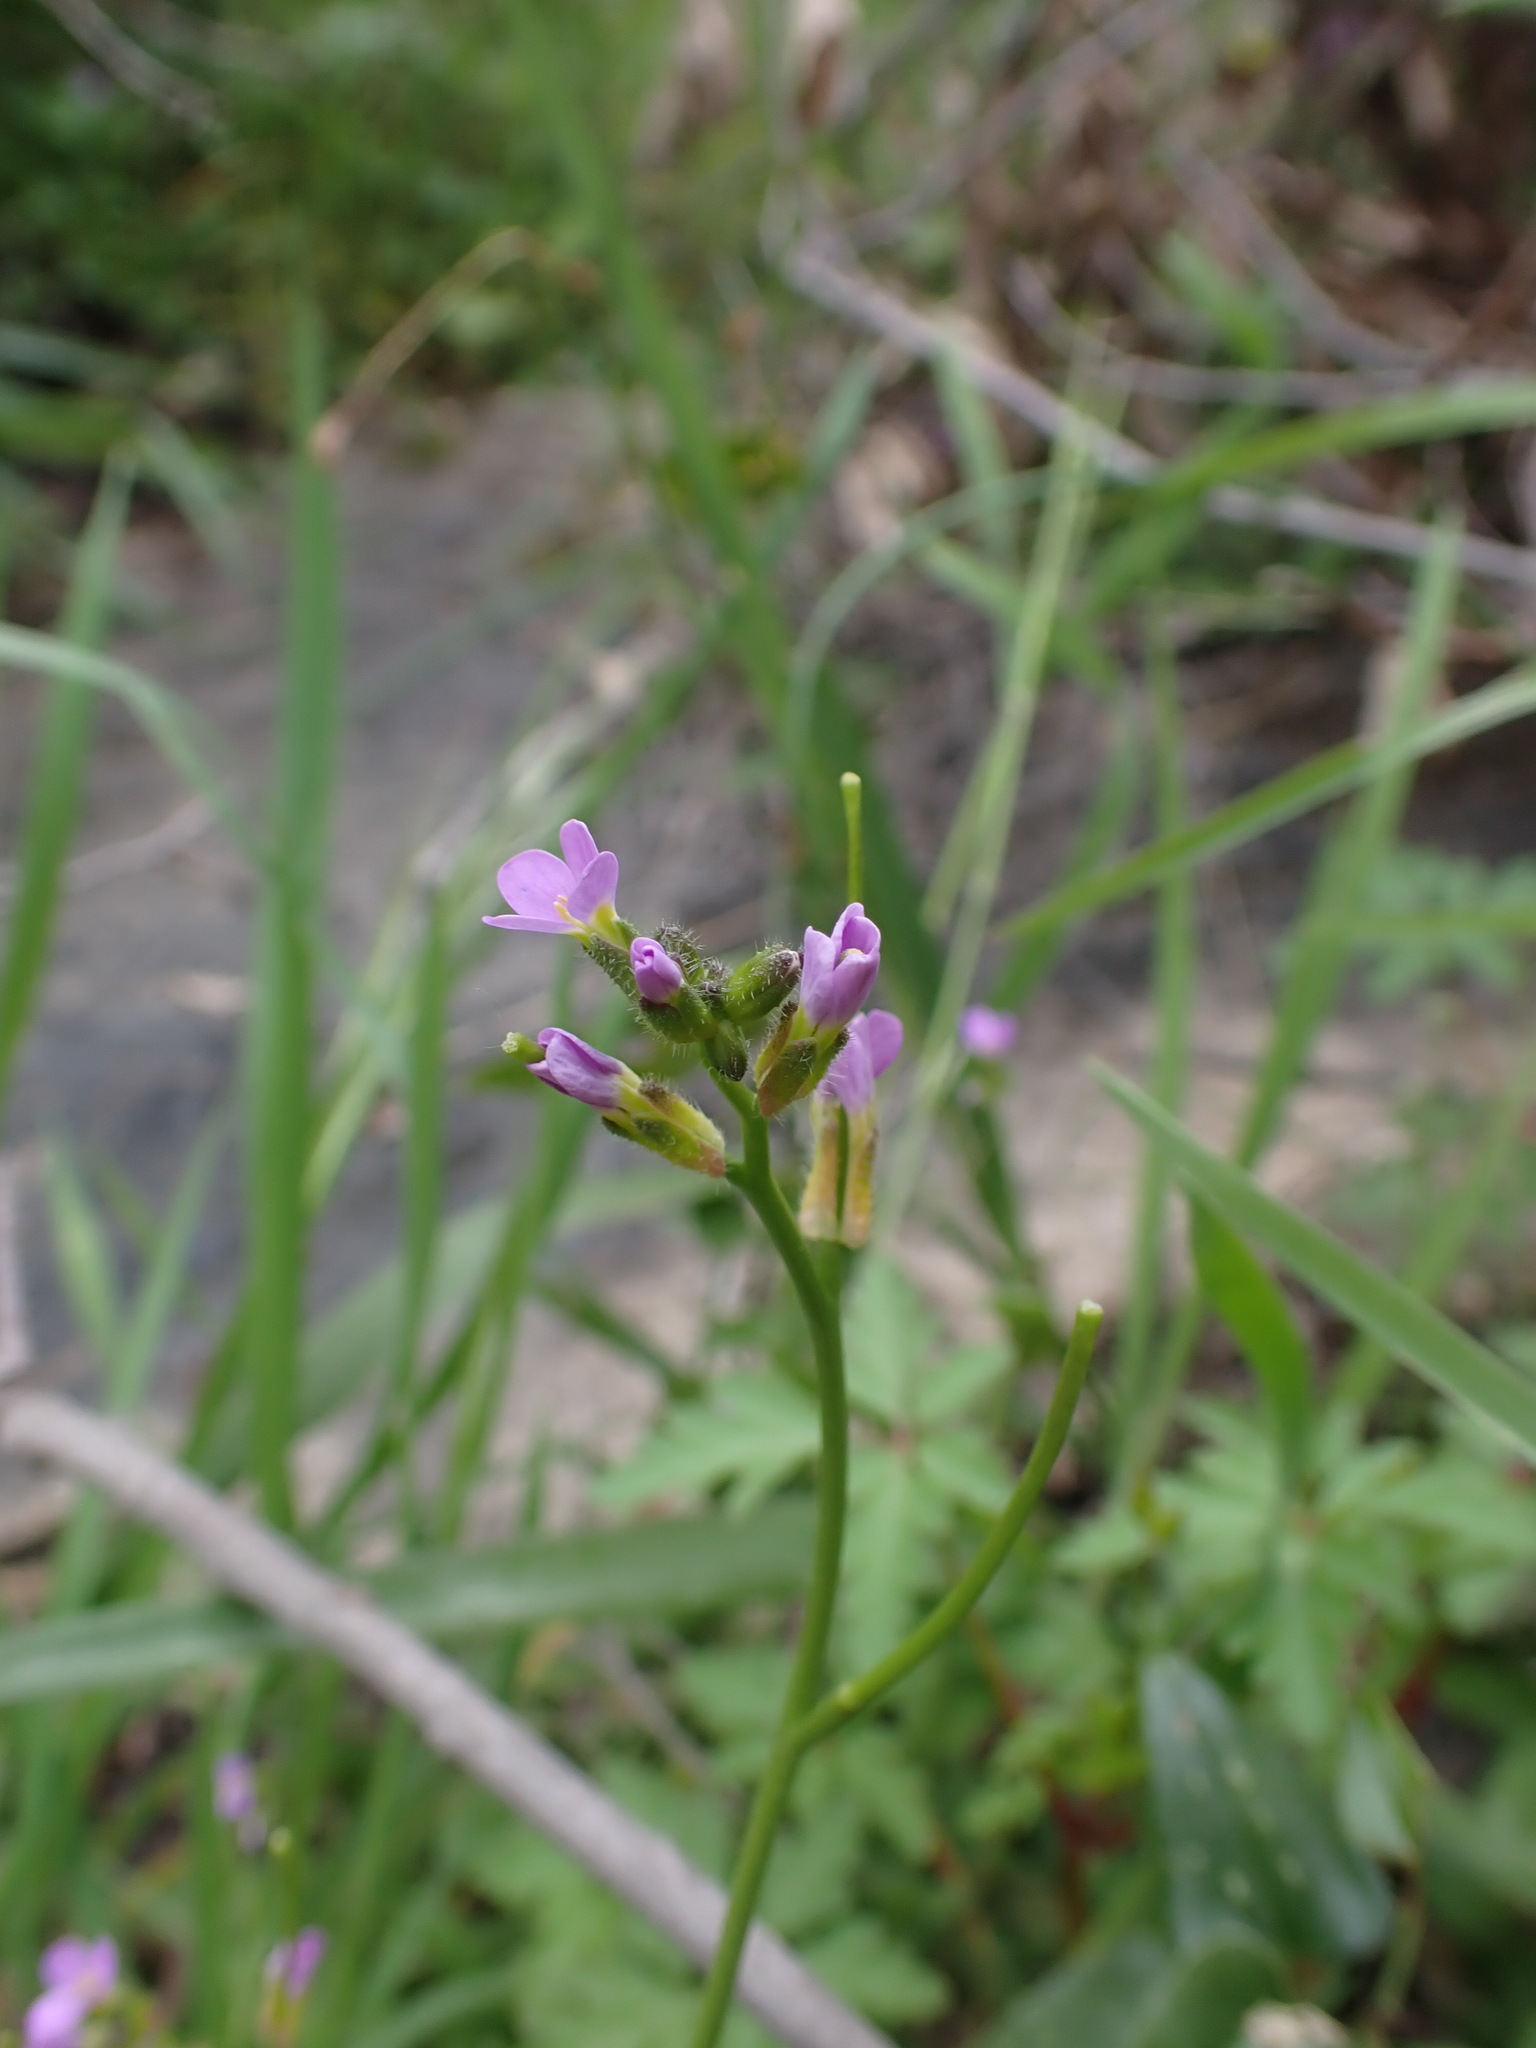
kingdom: Plantae
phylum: Tracheophyta
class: Magnoliopsida
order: Brassicales
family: Brassicaceae
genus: Arabis
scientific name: Arabis verna
